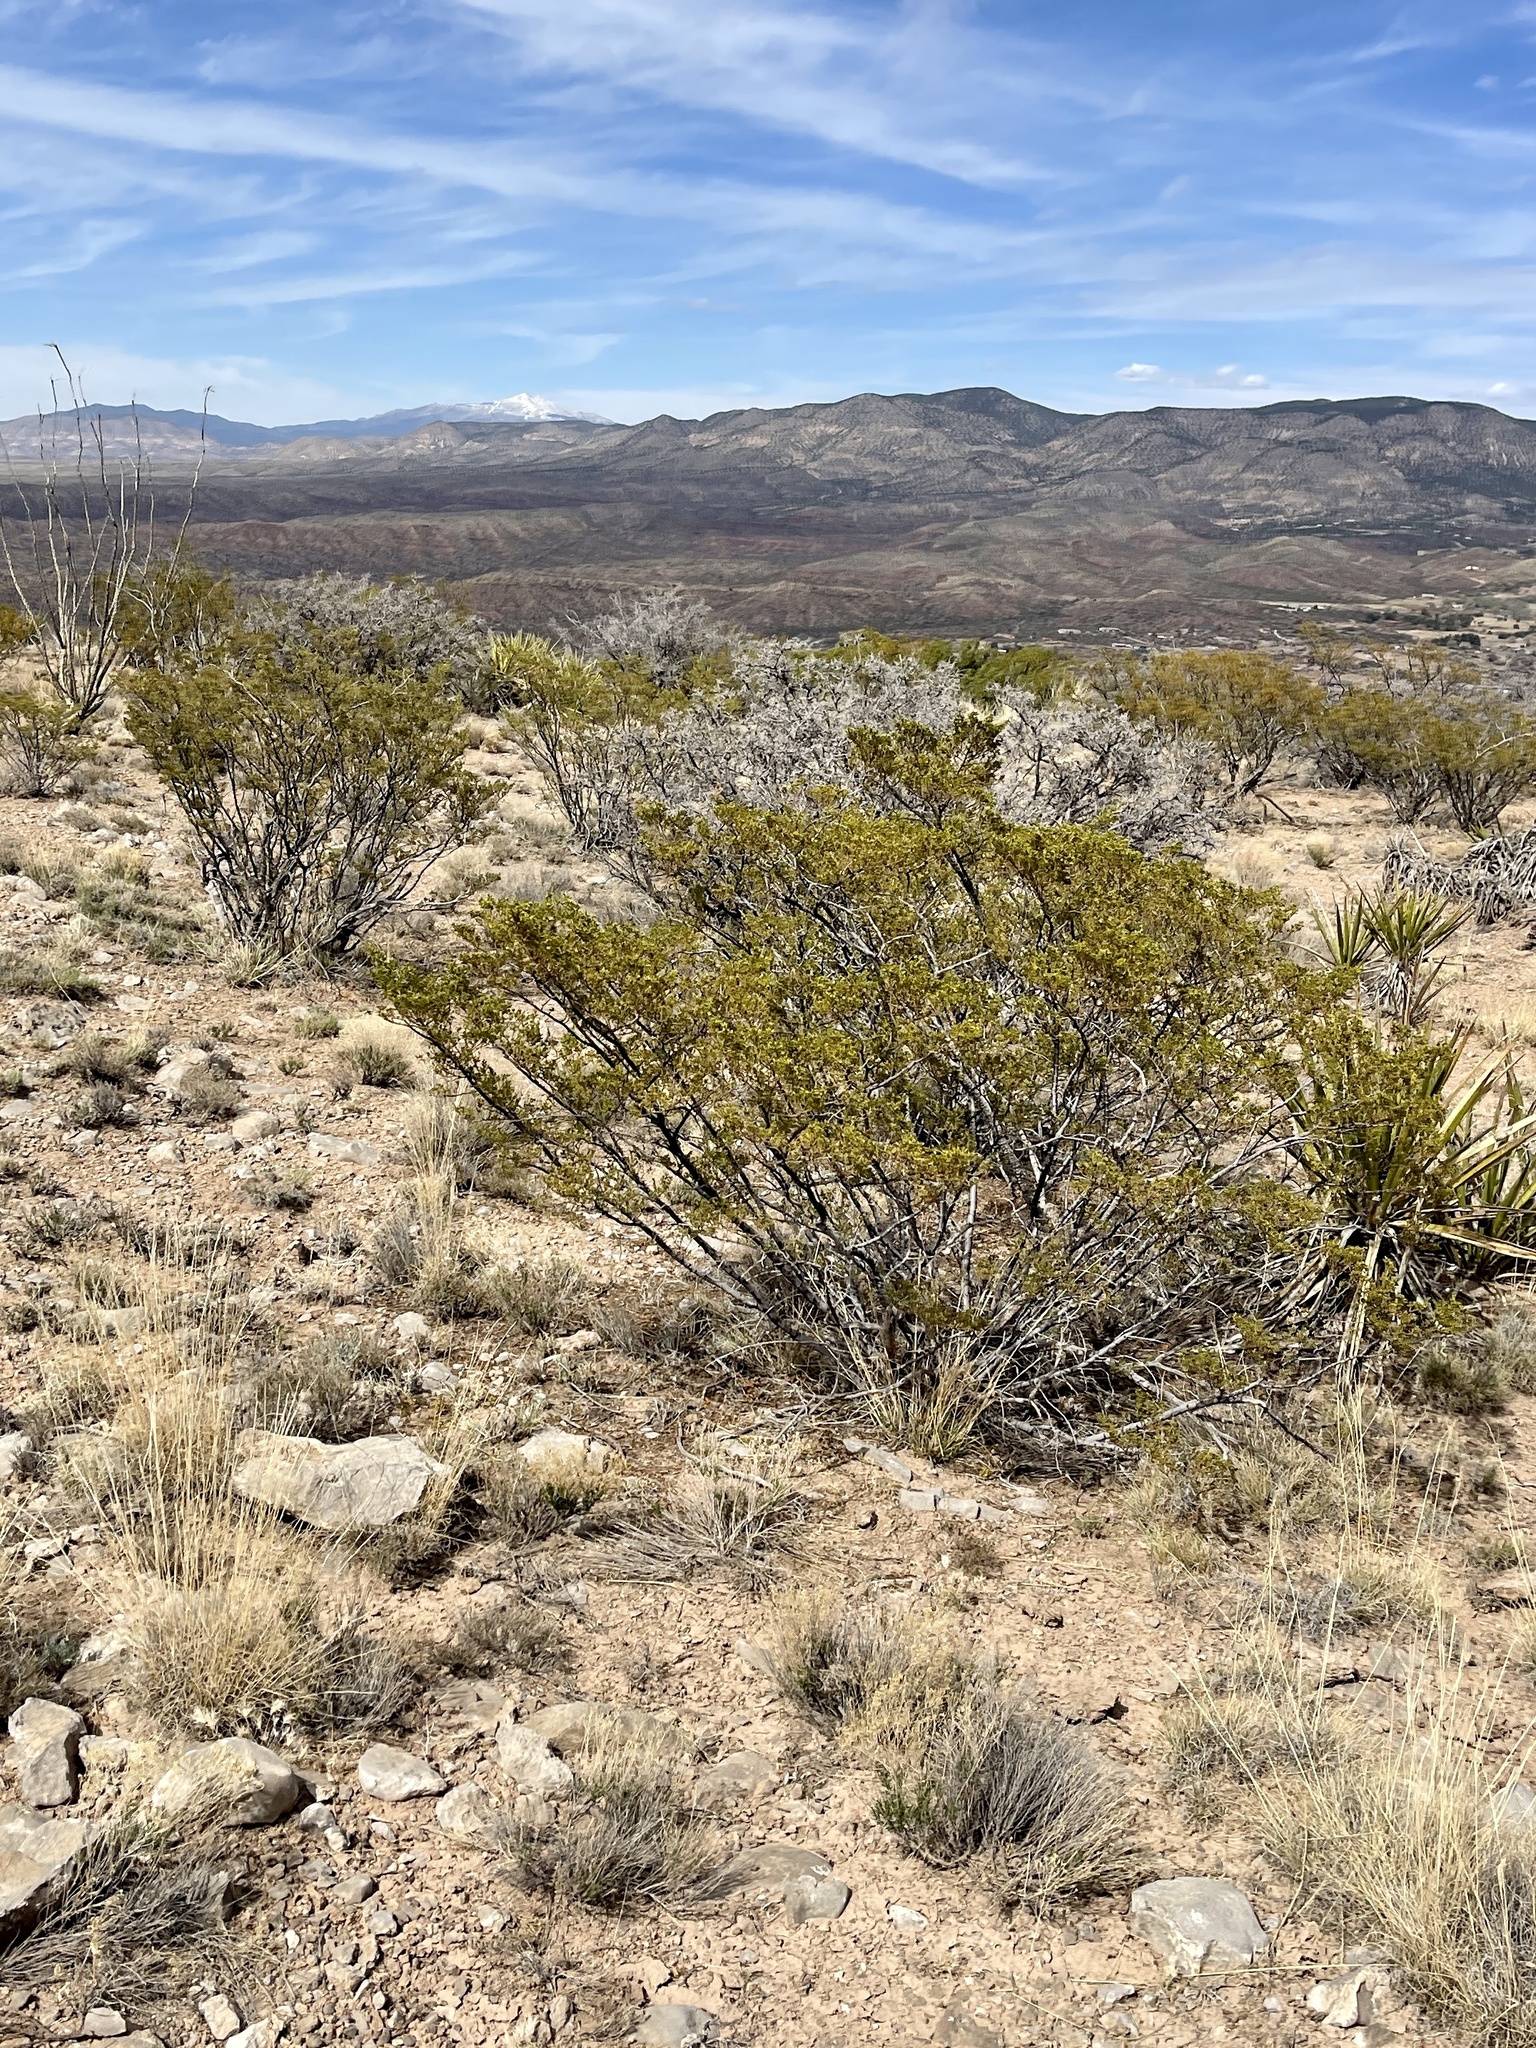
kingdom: Plantae
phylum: Tracheophyta
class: Magnoliopsida
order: Zygophyllales
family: Zygophyllaceae
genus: Larrea
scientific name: Larrea tridentata
